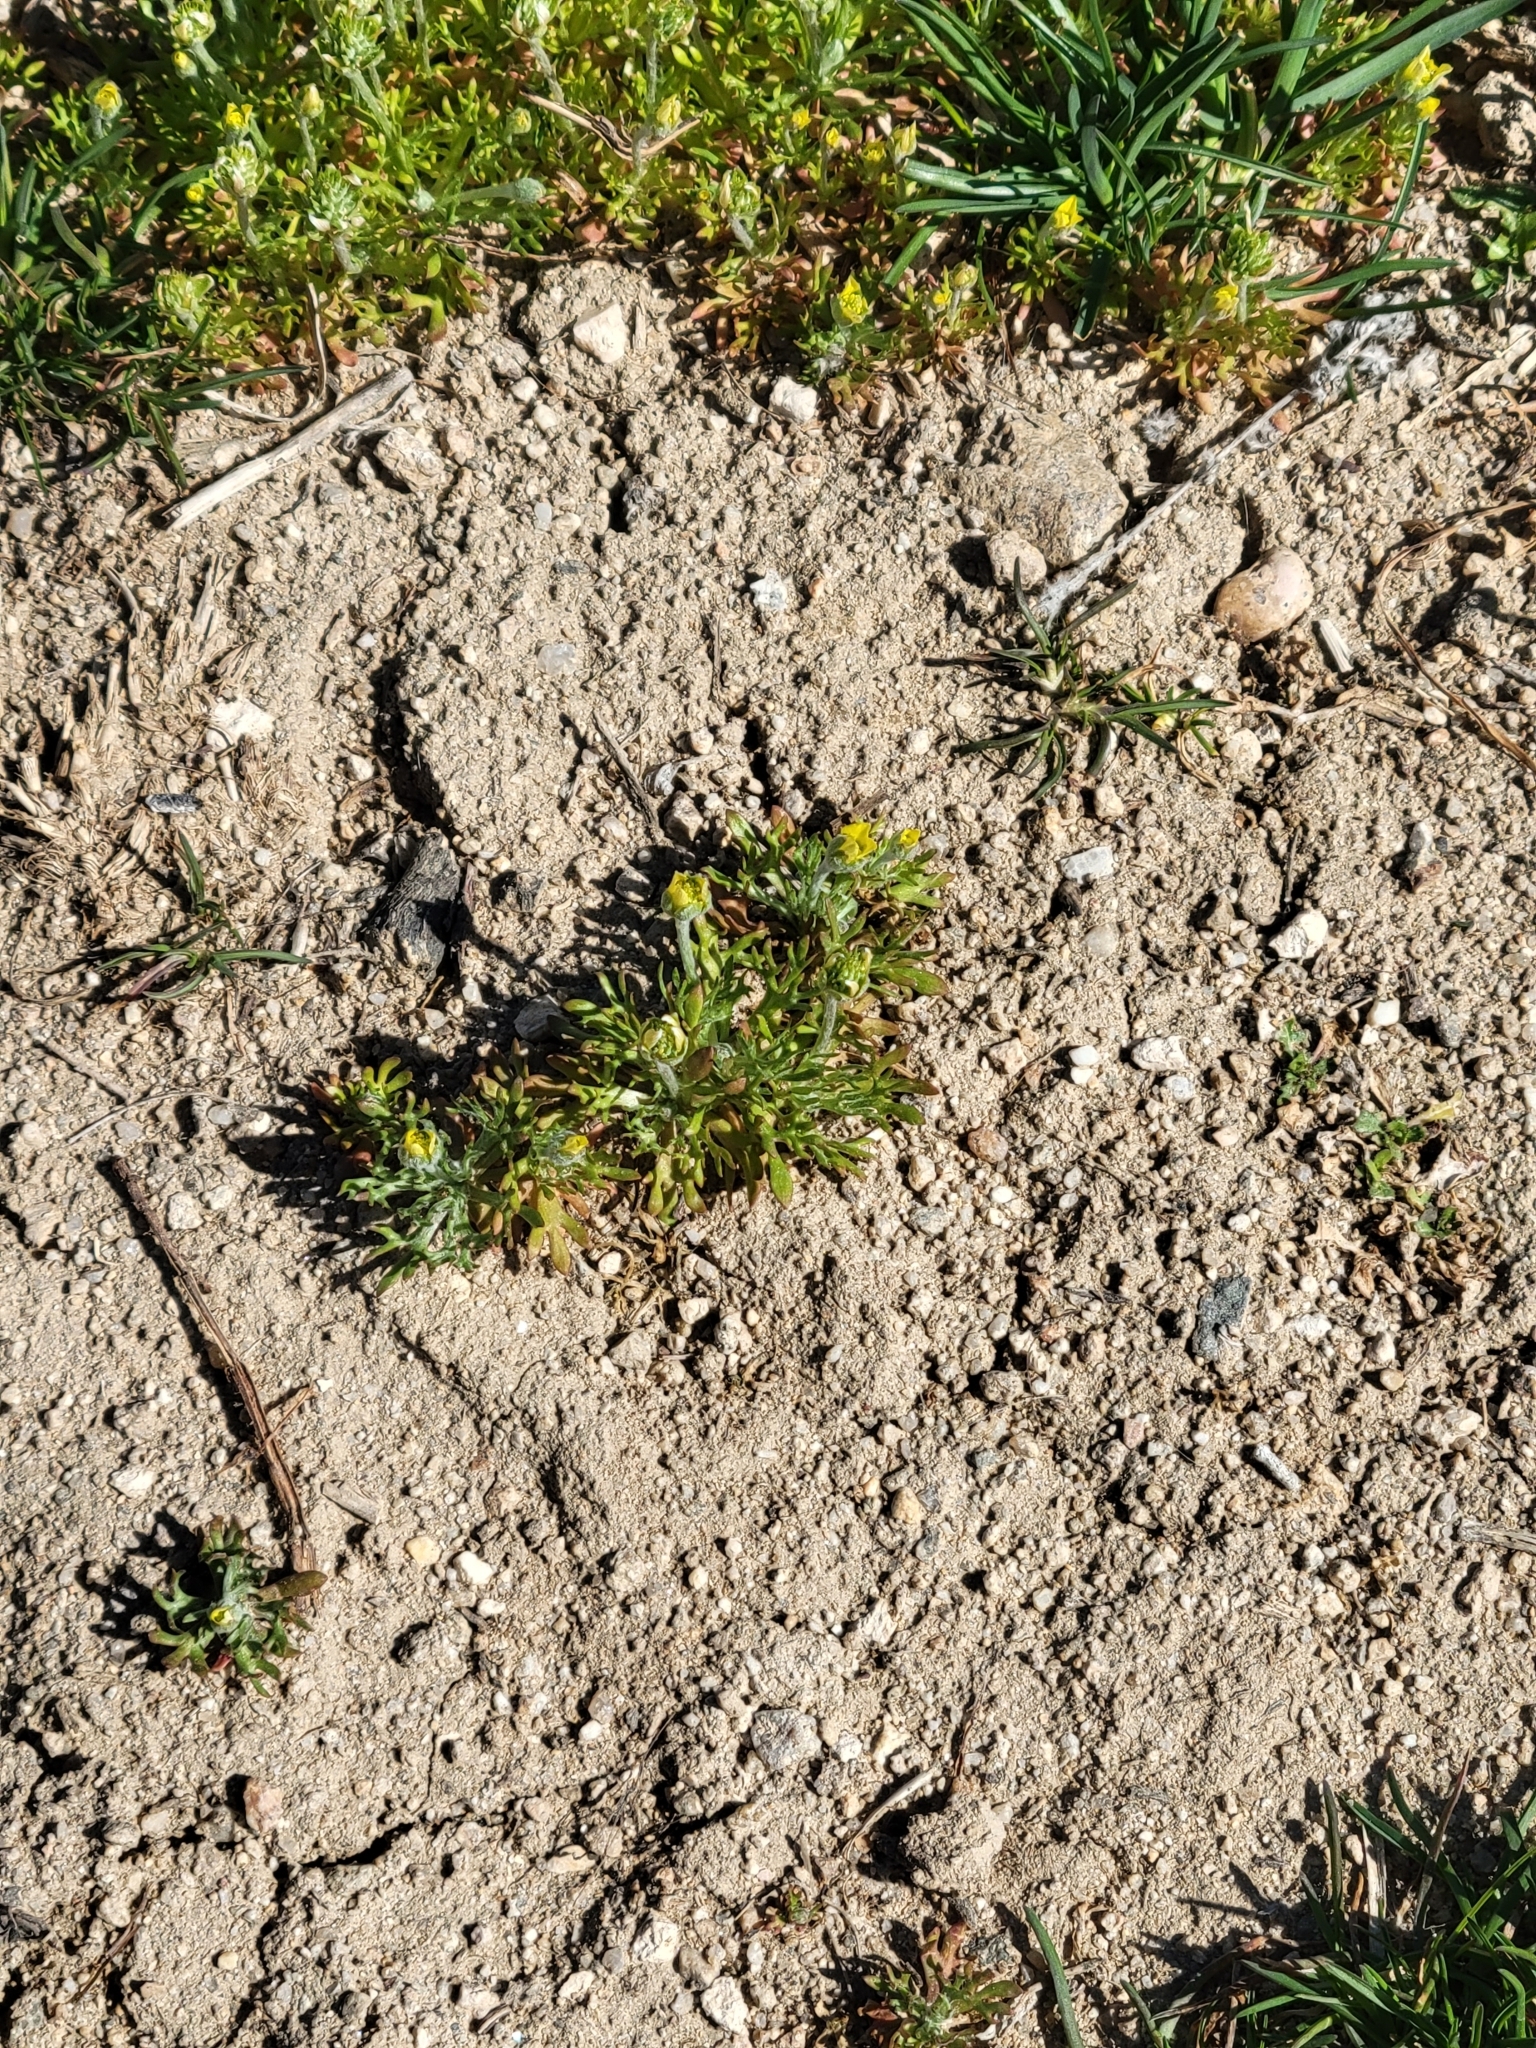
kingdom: Plantae
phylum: Tracheophyta
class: Magnoliopsida
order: Ranunculales
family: Ranunculaceae
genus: Ceratocephala
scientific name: Ceratocephala orthoceras
